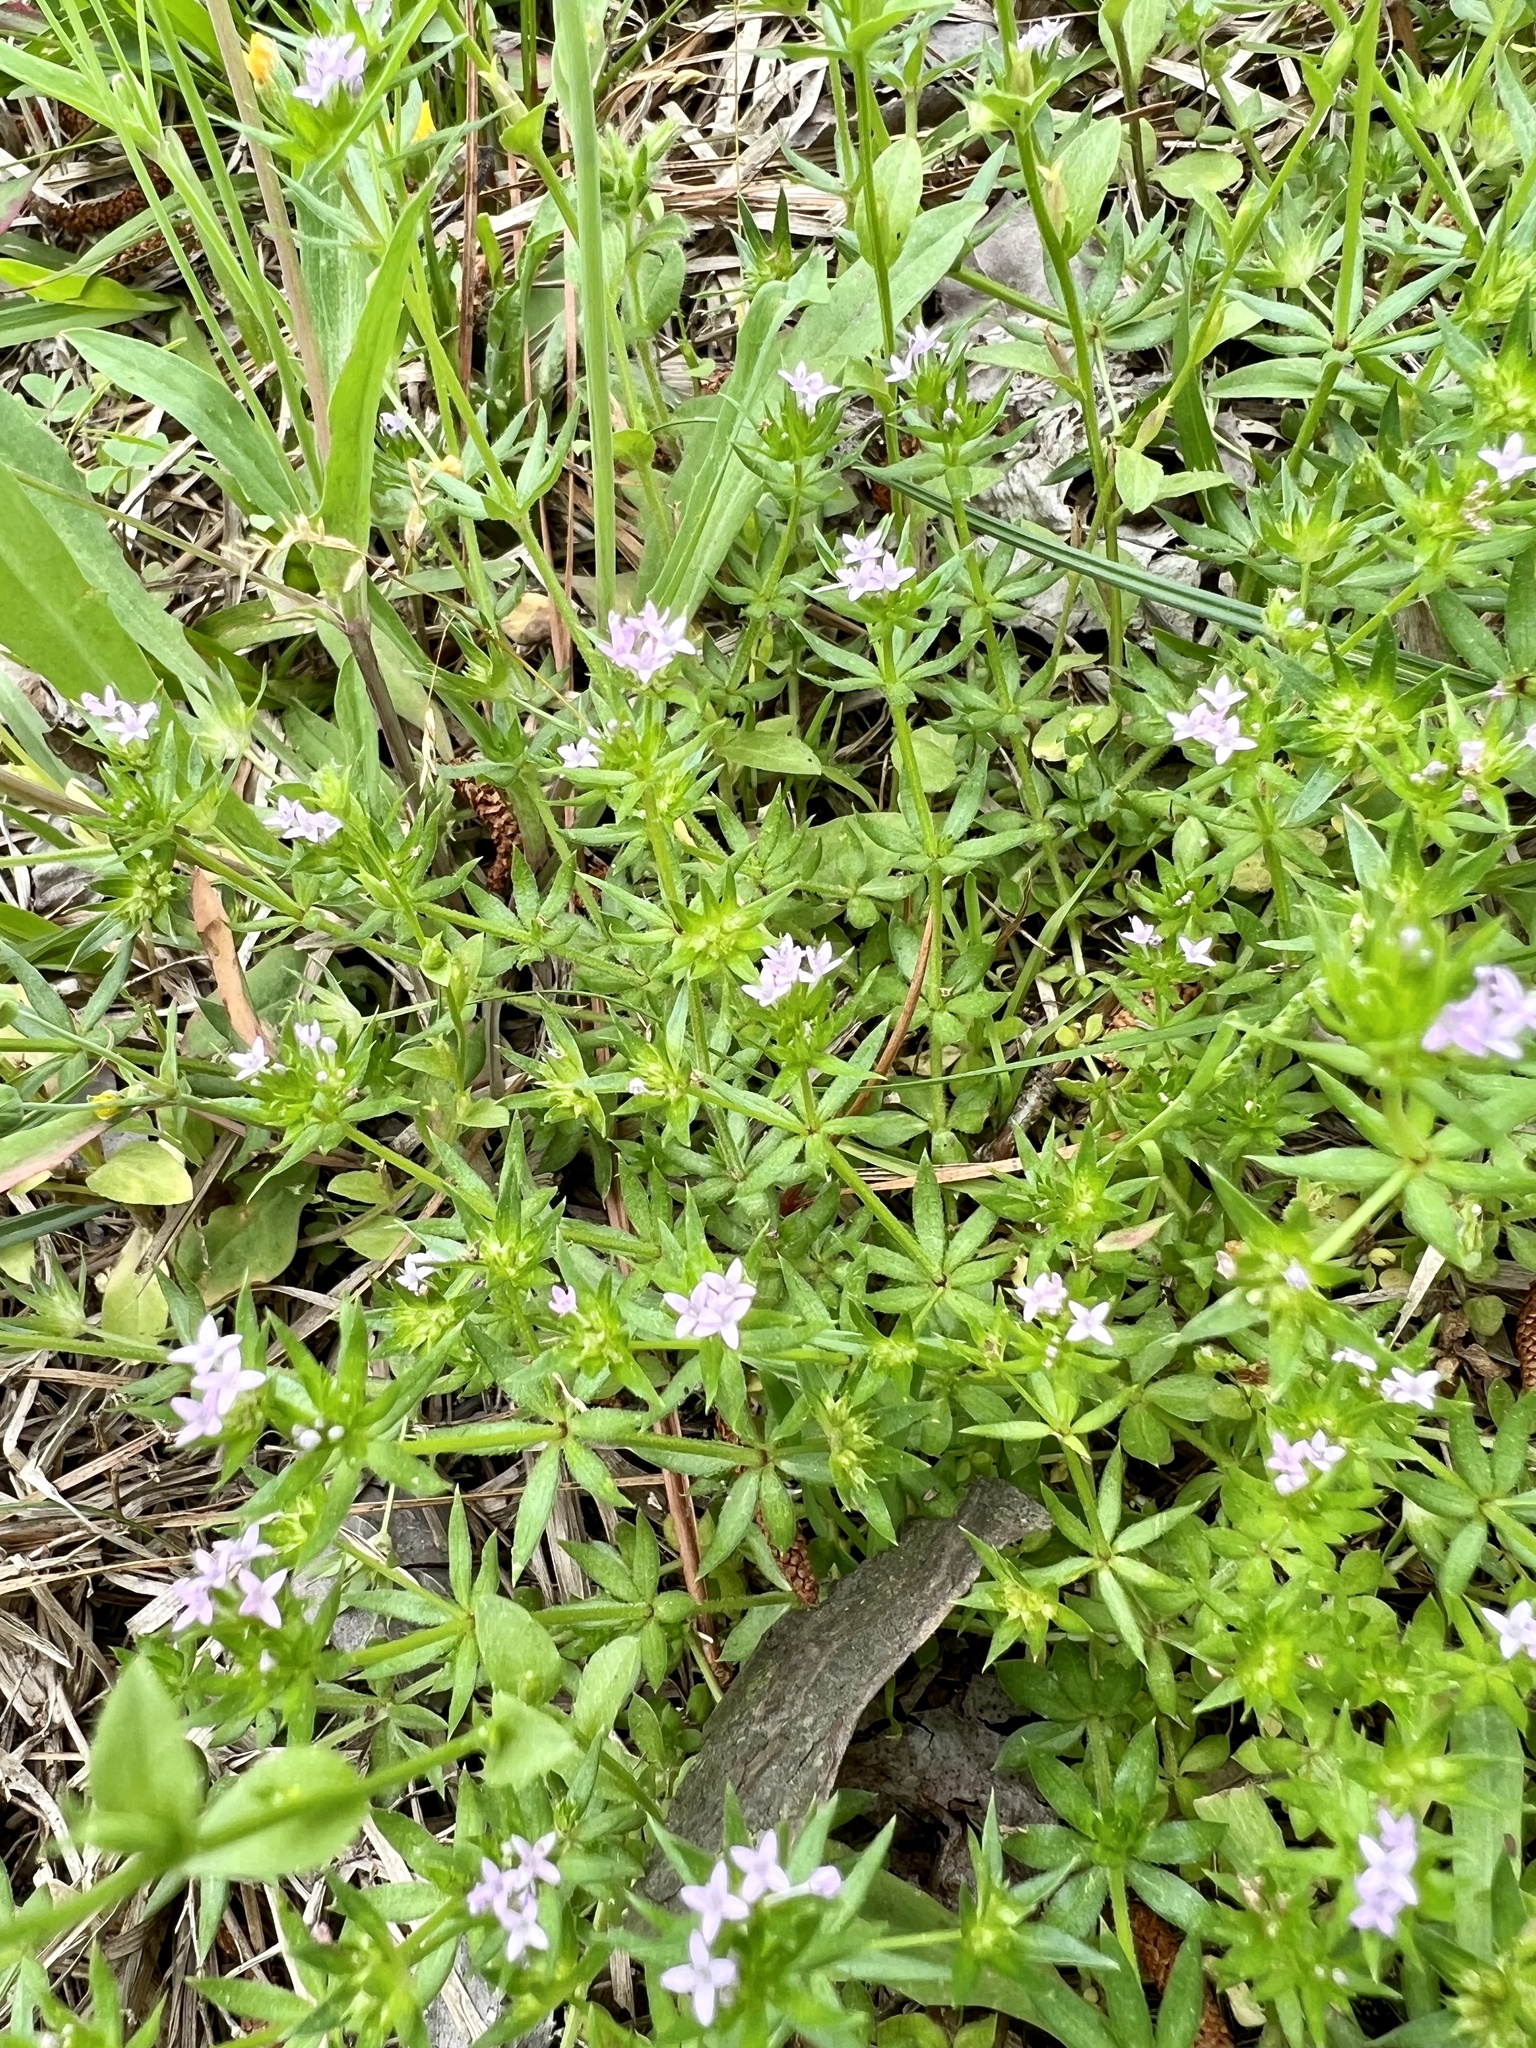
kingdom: Plantae
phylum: Tracheophyta
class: Magnoliopsida
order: Gentianales
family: Rubiaceae
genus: Sherardia
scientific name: Sherardia arvensis
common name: Field madder
